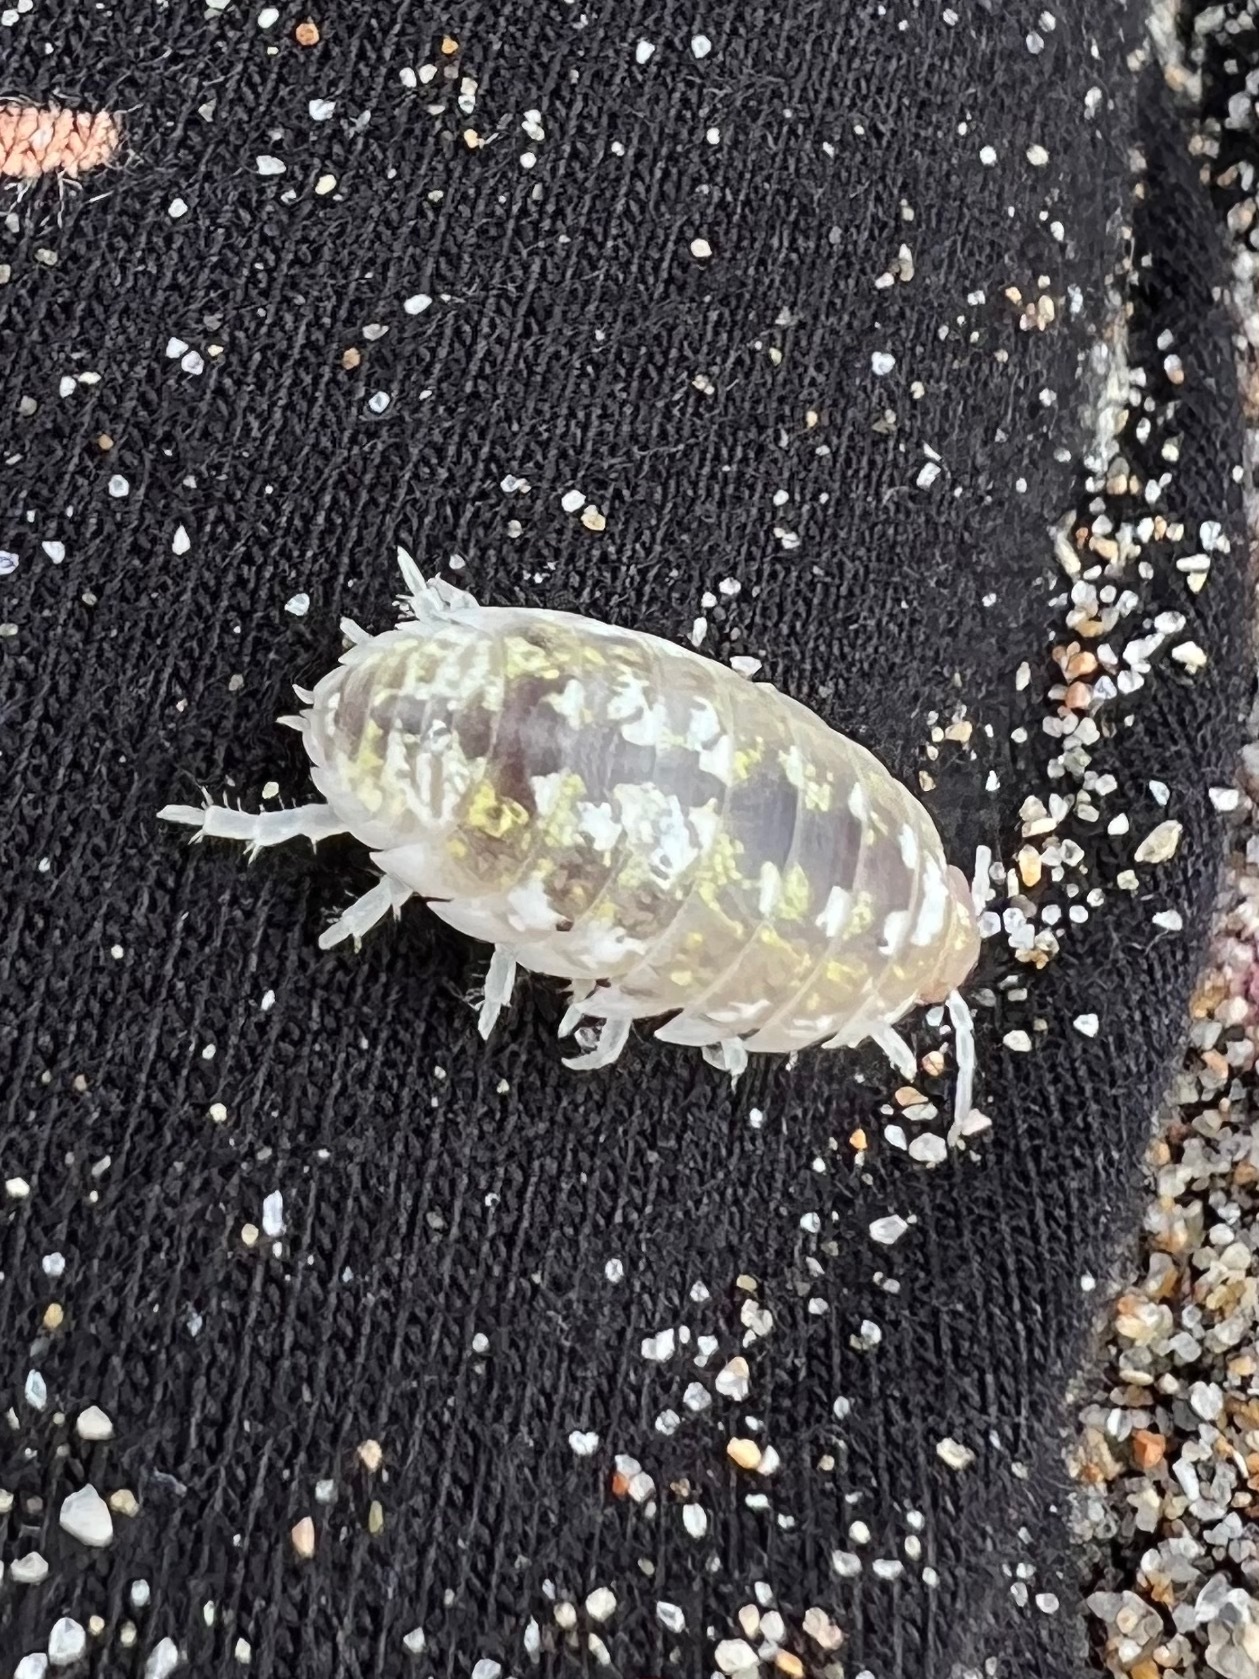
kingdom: Animalia
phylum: Arthropoda
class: Malacostraca
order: Isopoda
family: Alloniscidae
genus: Alloniscus
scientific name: Alloniscus perconvexus
